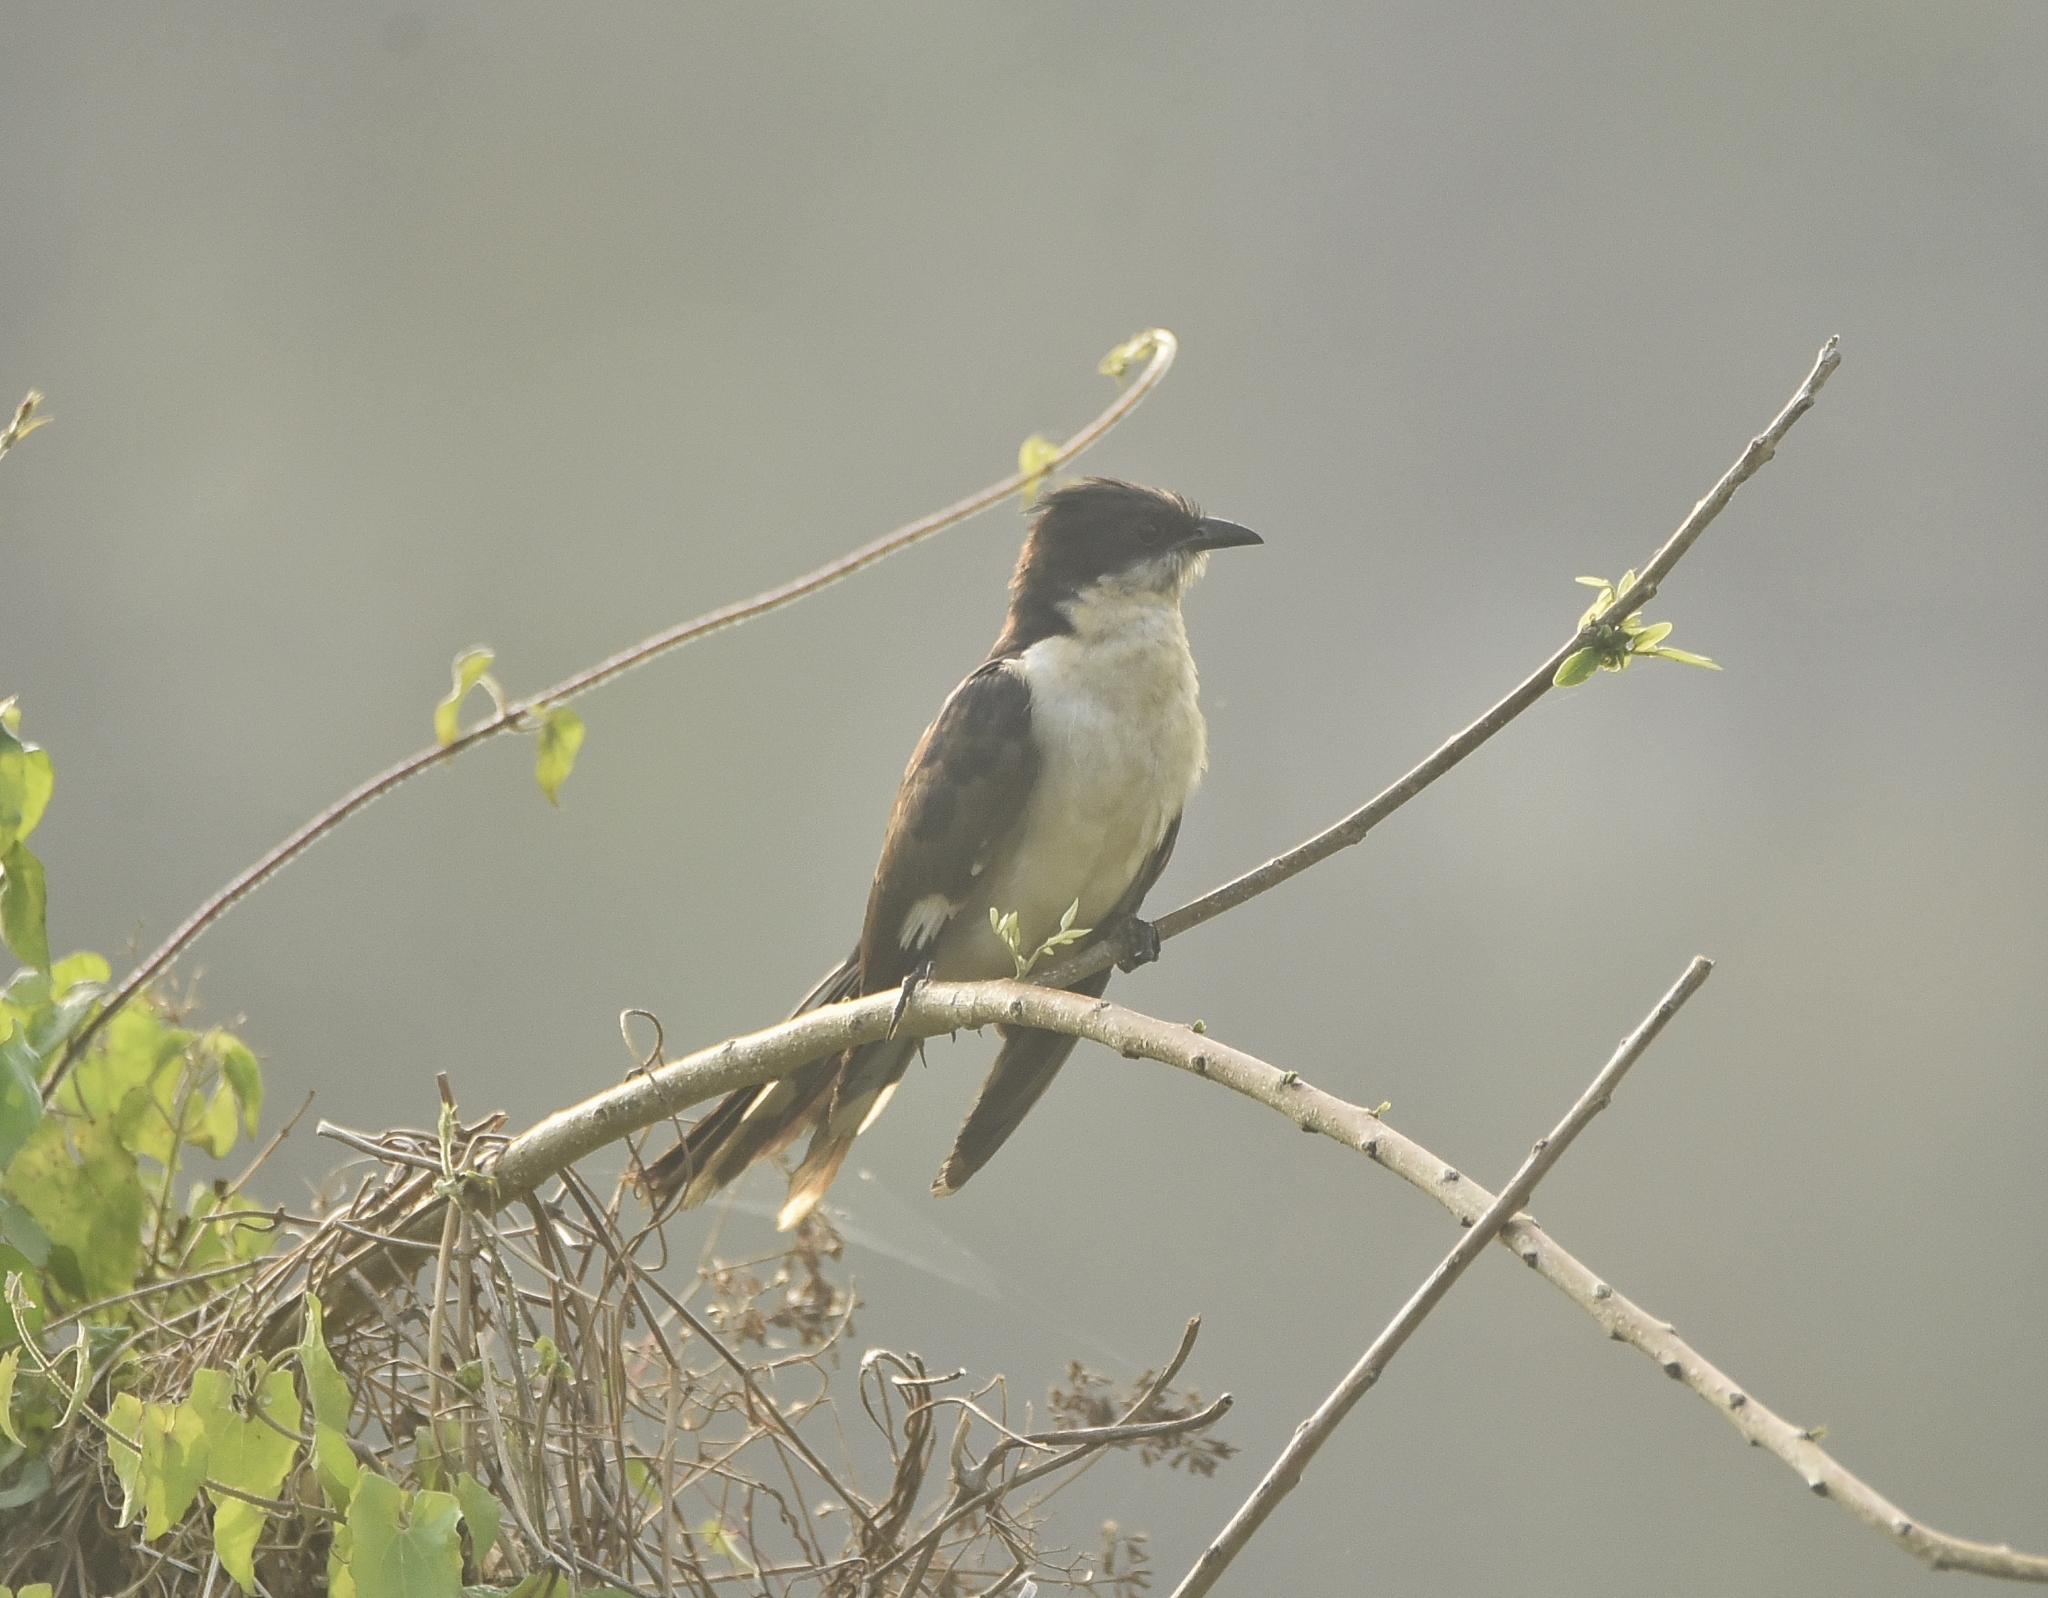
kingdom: Animalia
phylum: Chordata
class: Aves
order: Cuculiformes
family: Cuculidae
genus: Clamator
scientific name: Clamator jacobinus
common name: Jacobin cuckoo
